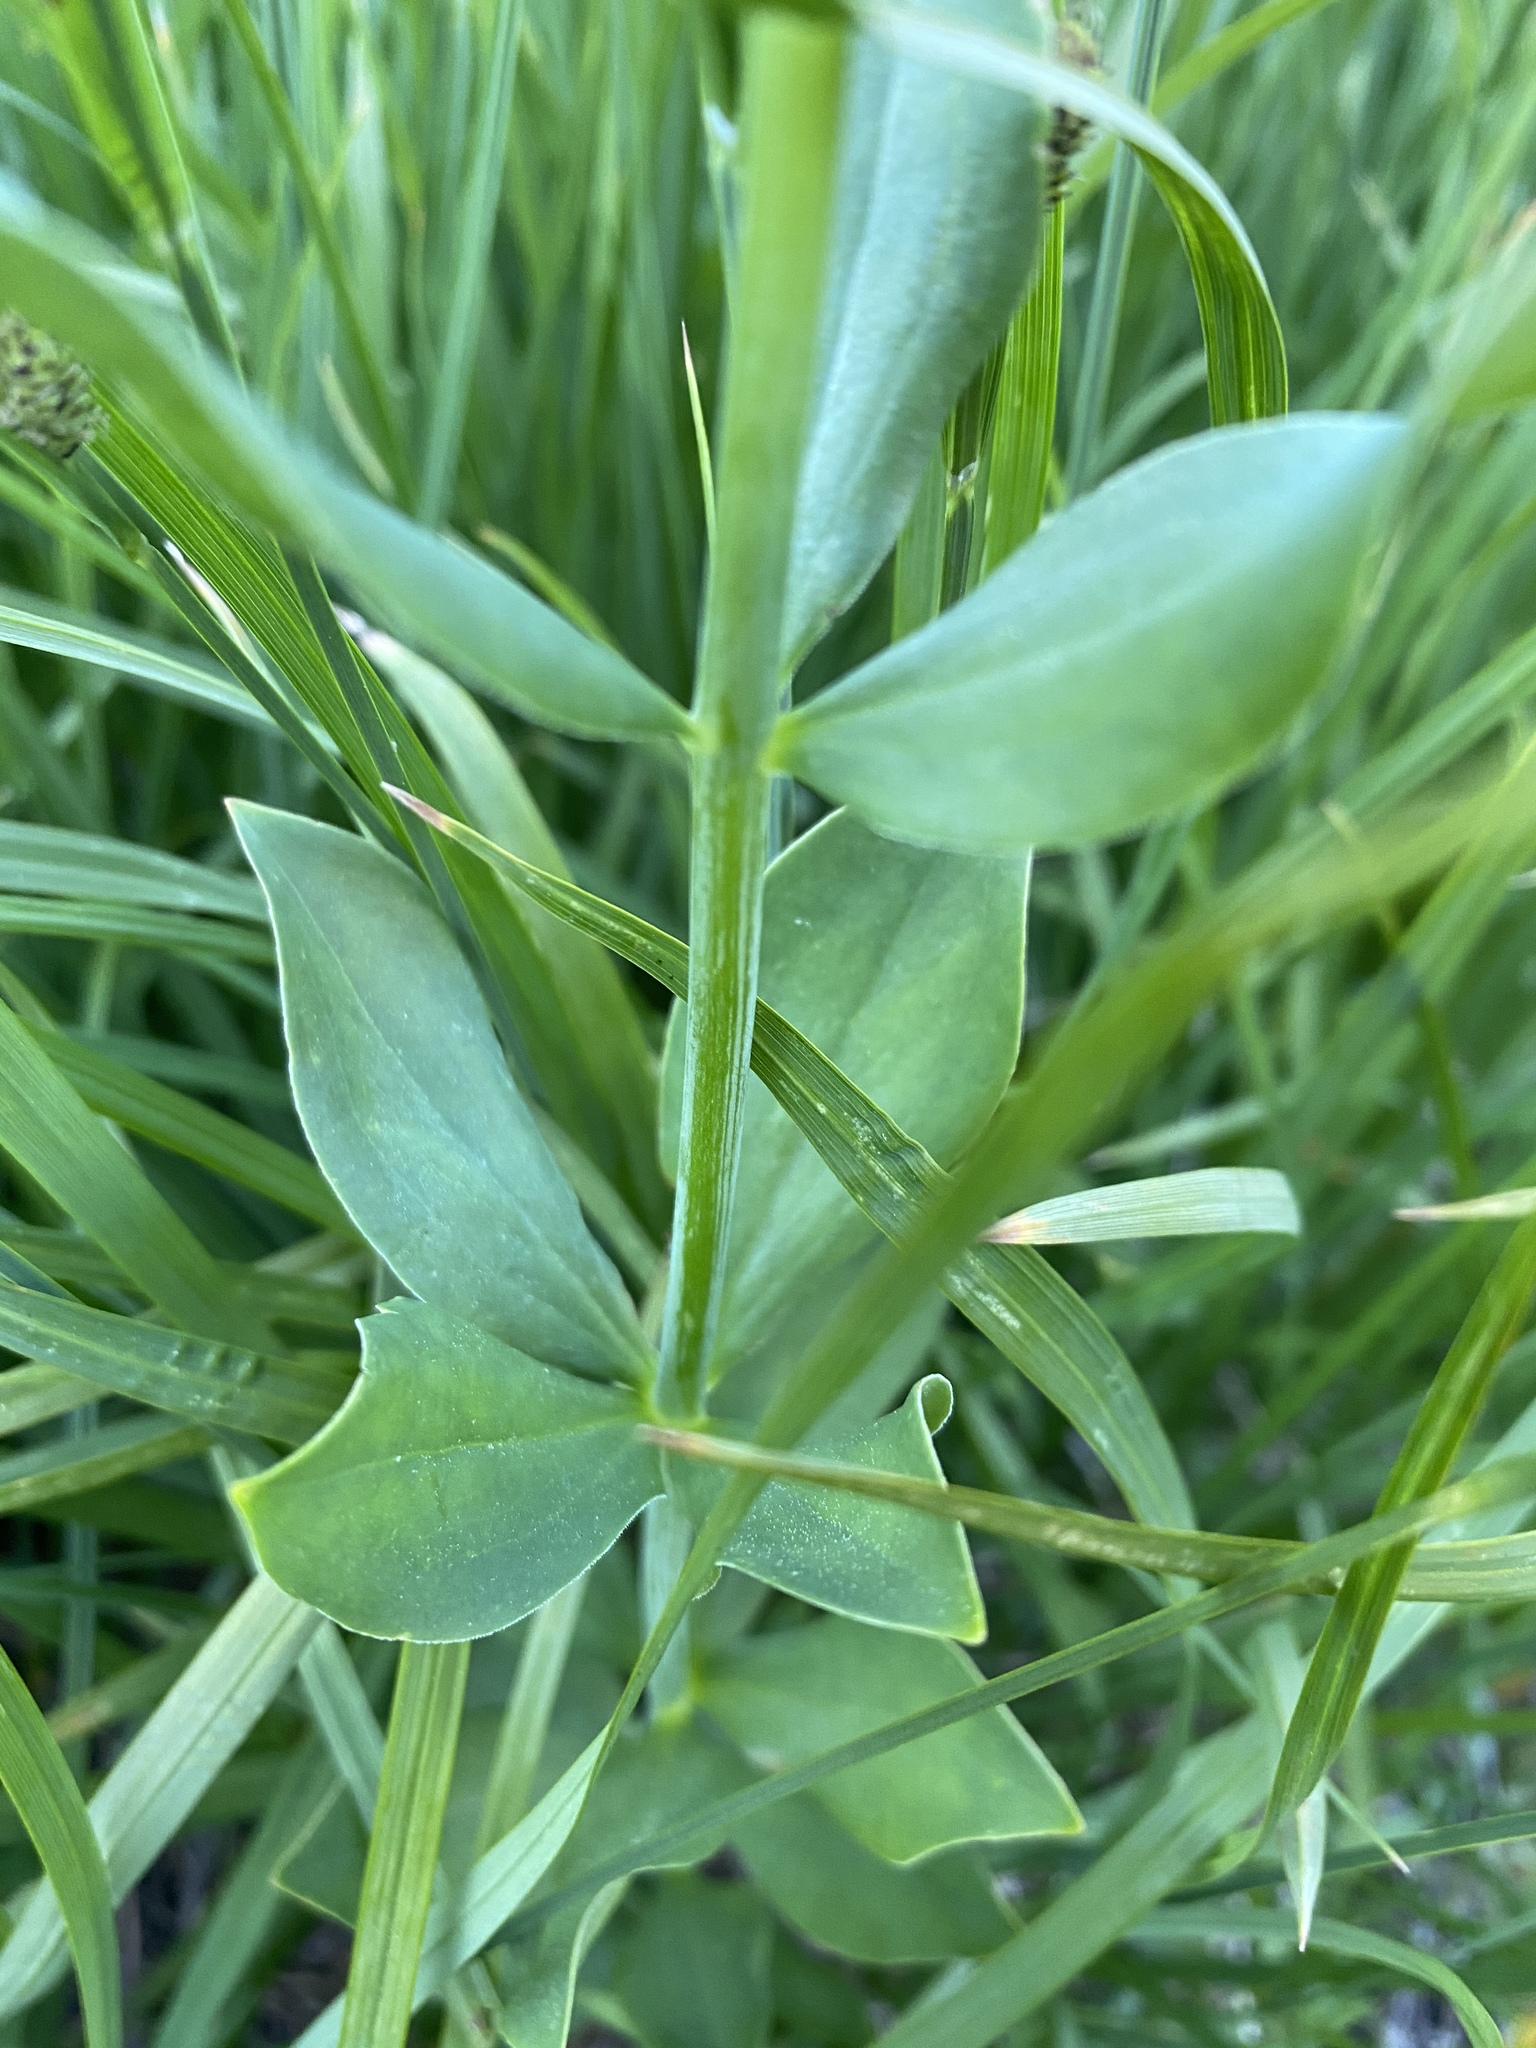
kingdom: Plantae
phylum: Tracheophyta
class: Liliopsida
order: Liliales
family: Liliaceae
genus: Lilium
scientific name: Lilium parvum
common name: Alpine lily
